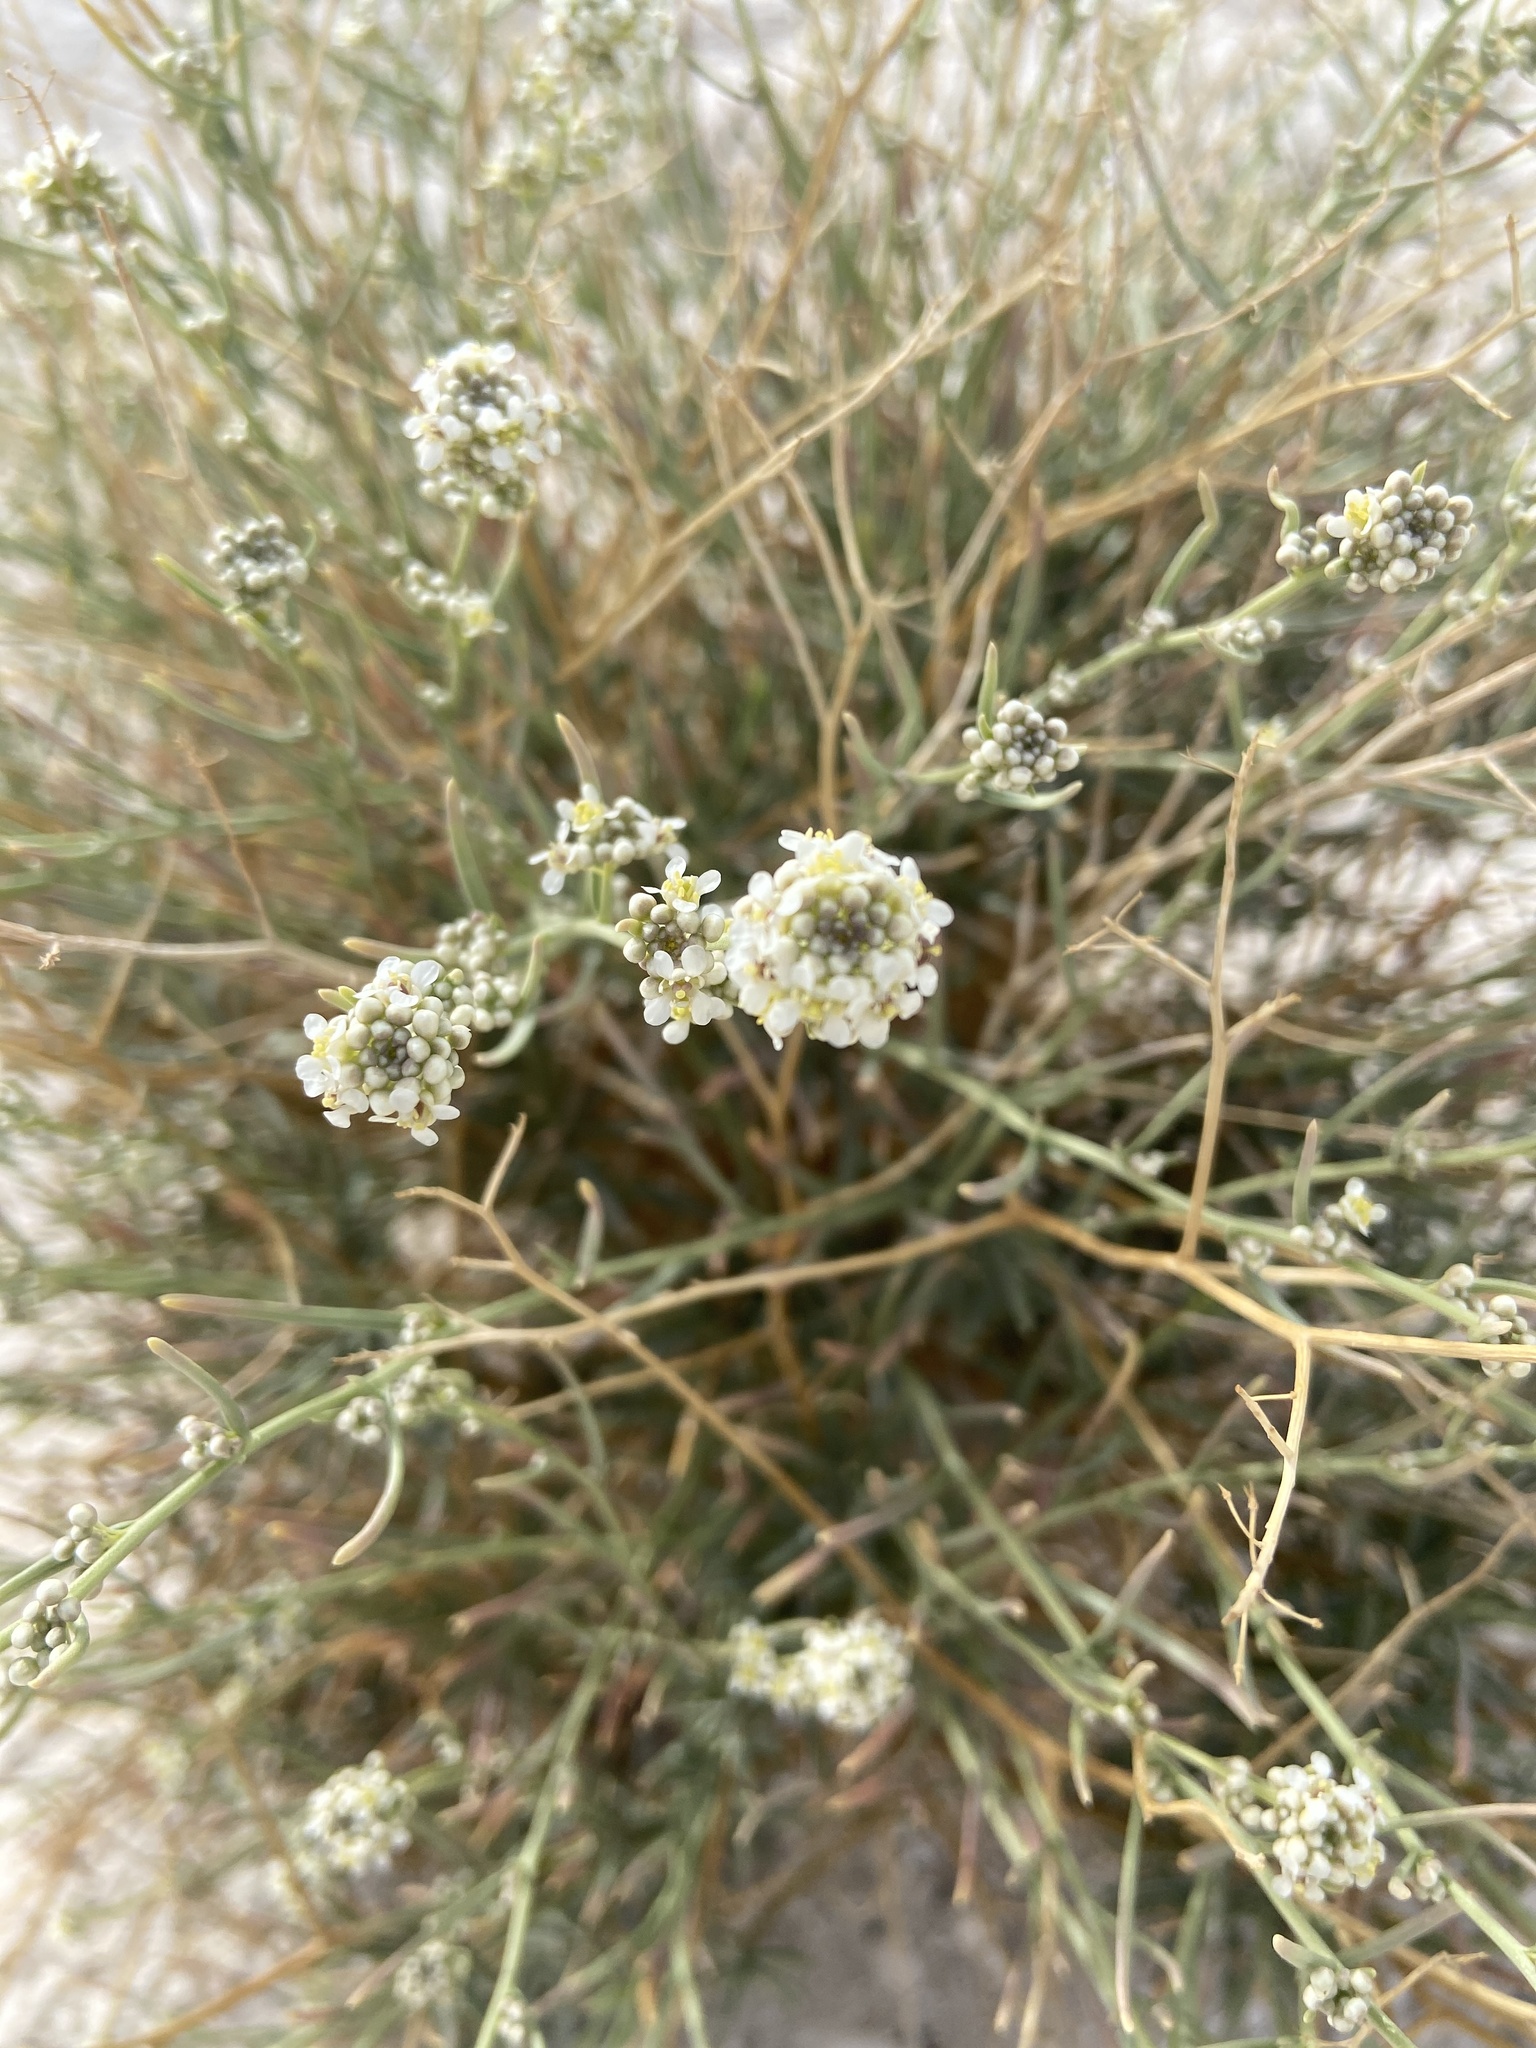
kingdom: Plantae
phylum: Tracheophyta
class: Magnoliopsida
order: Brassicales
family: Brassicaceae
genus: Lepidium
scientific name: Lepidium fremontii
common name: Fremont's pepperwort
